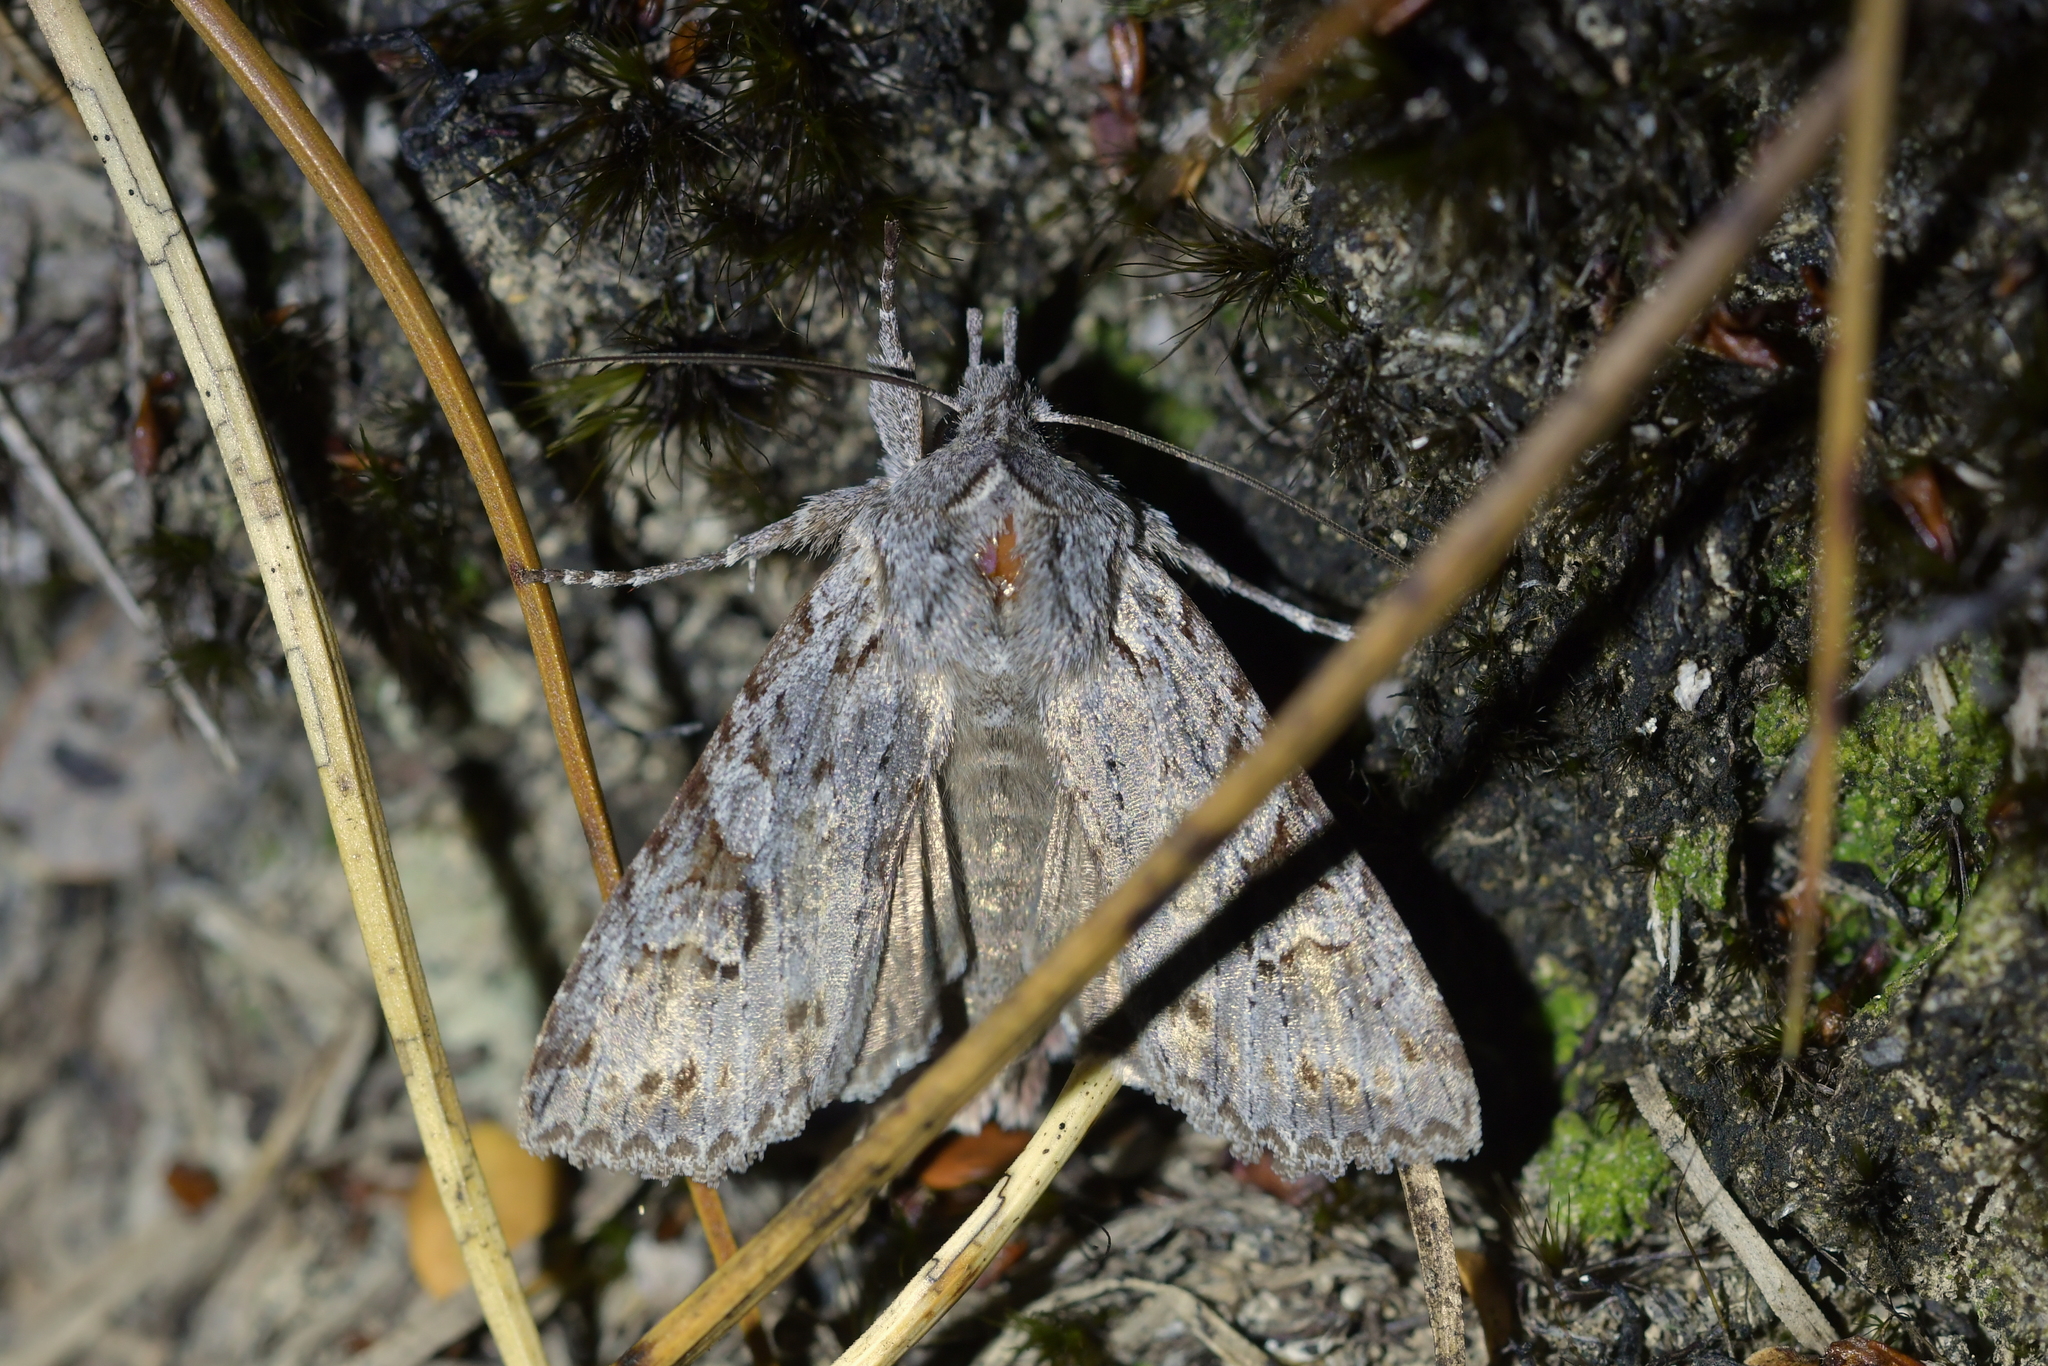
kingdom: Animalia
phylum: Arthropoda
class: Insecta
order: Lepidoptera
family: Noctuidae
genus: Physetica
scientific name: Physetica longstaffii
